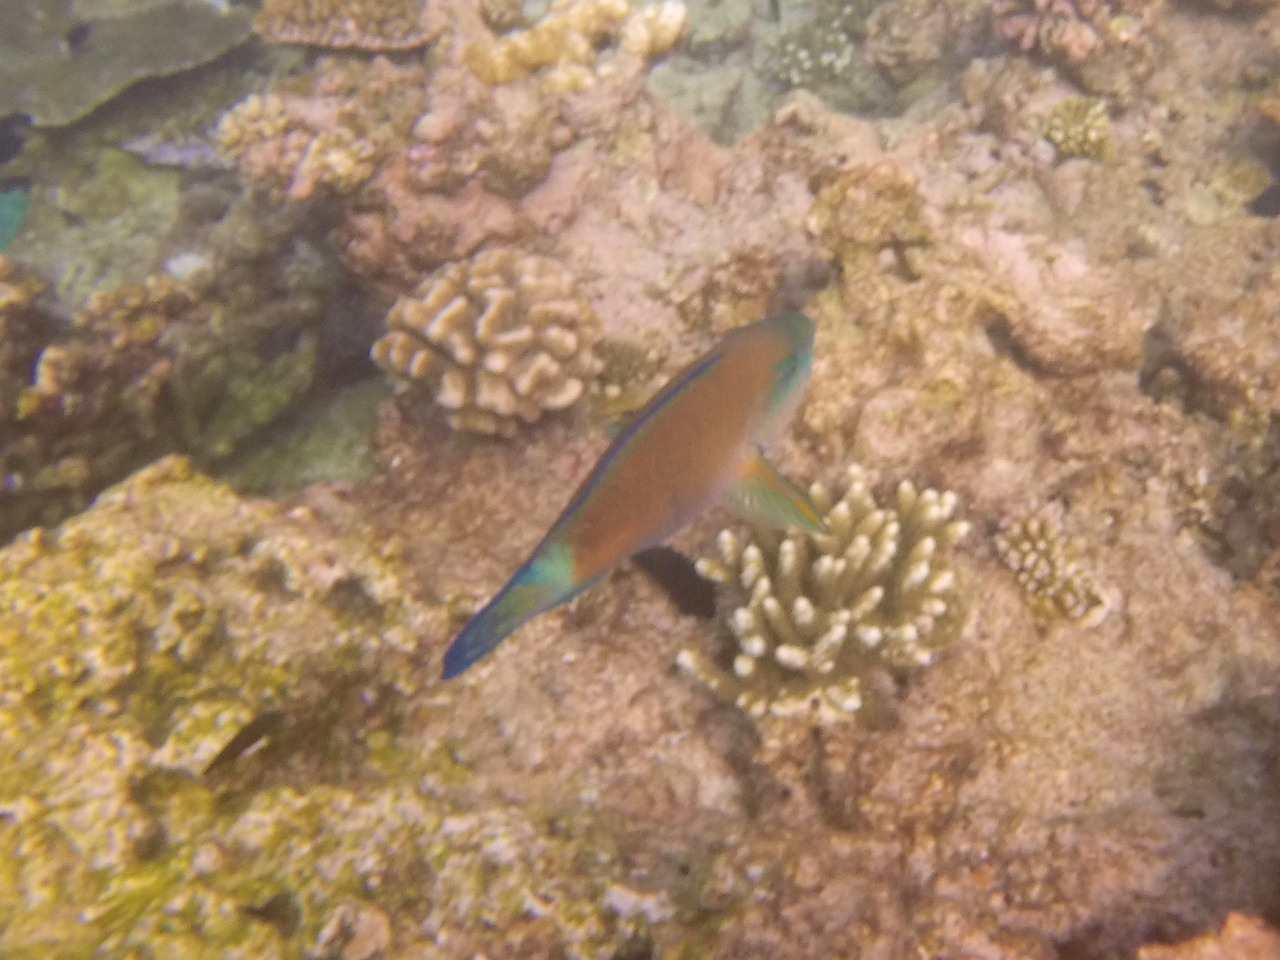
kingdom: Animalia
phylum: Chordata
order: Perciformes
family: Scaridae
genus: Chlorurus
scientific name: Chlorurus spilurus
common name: Bullethead parrotfish
